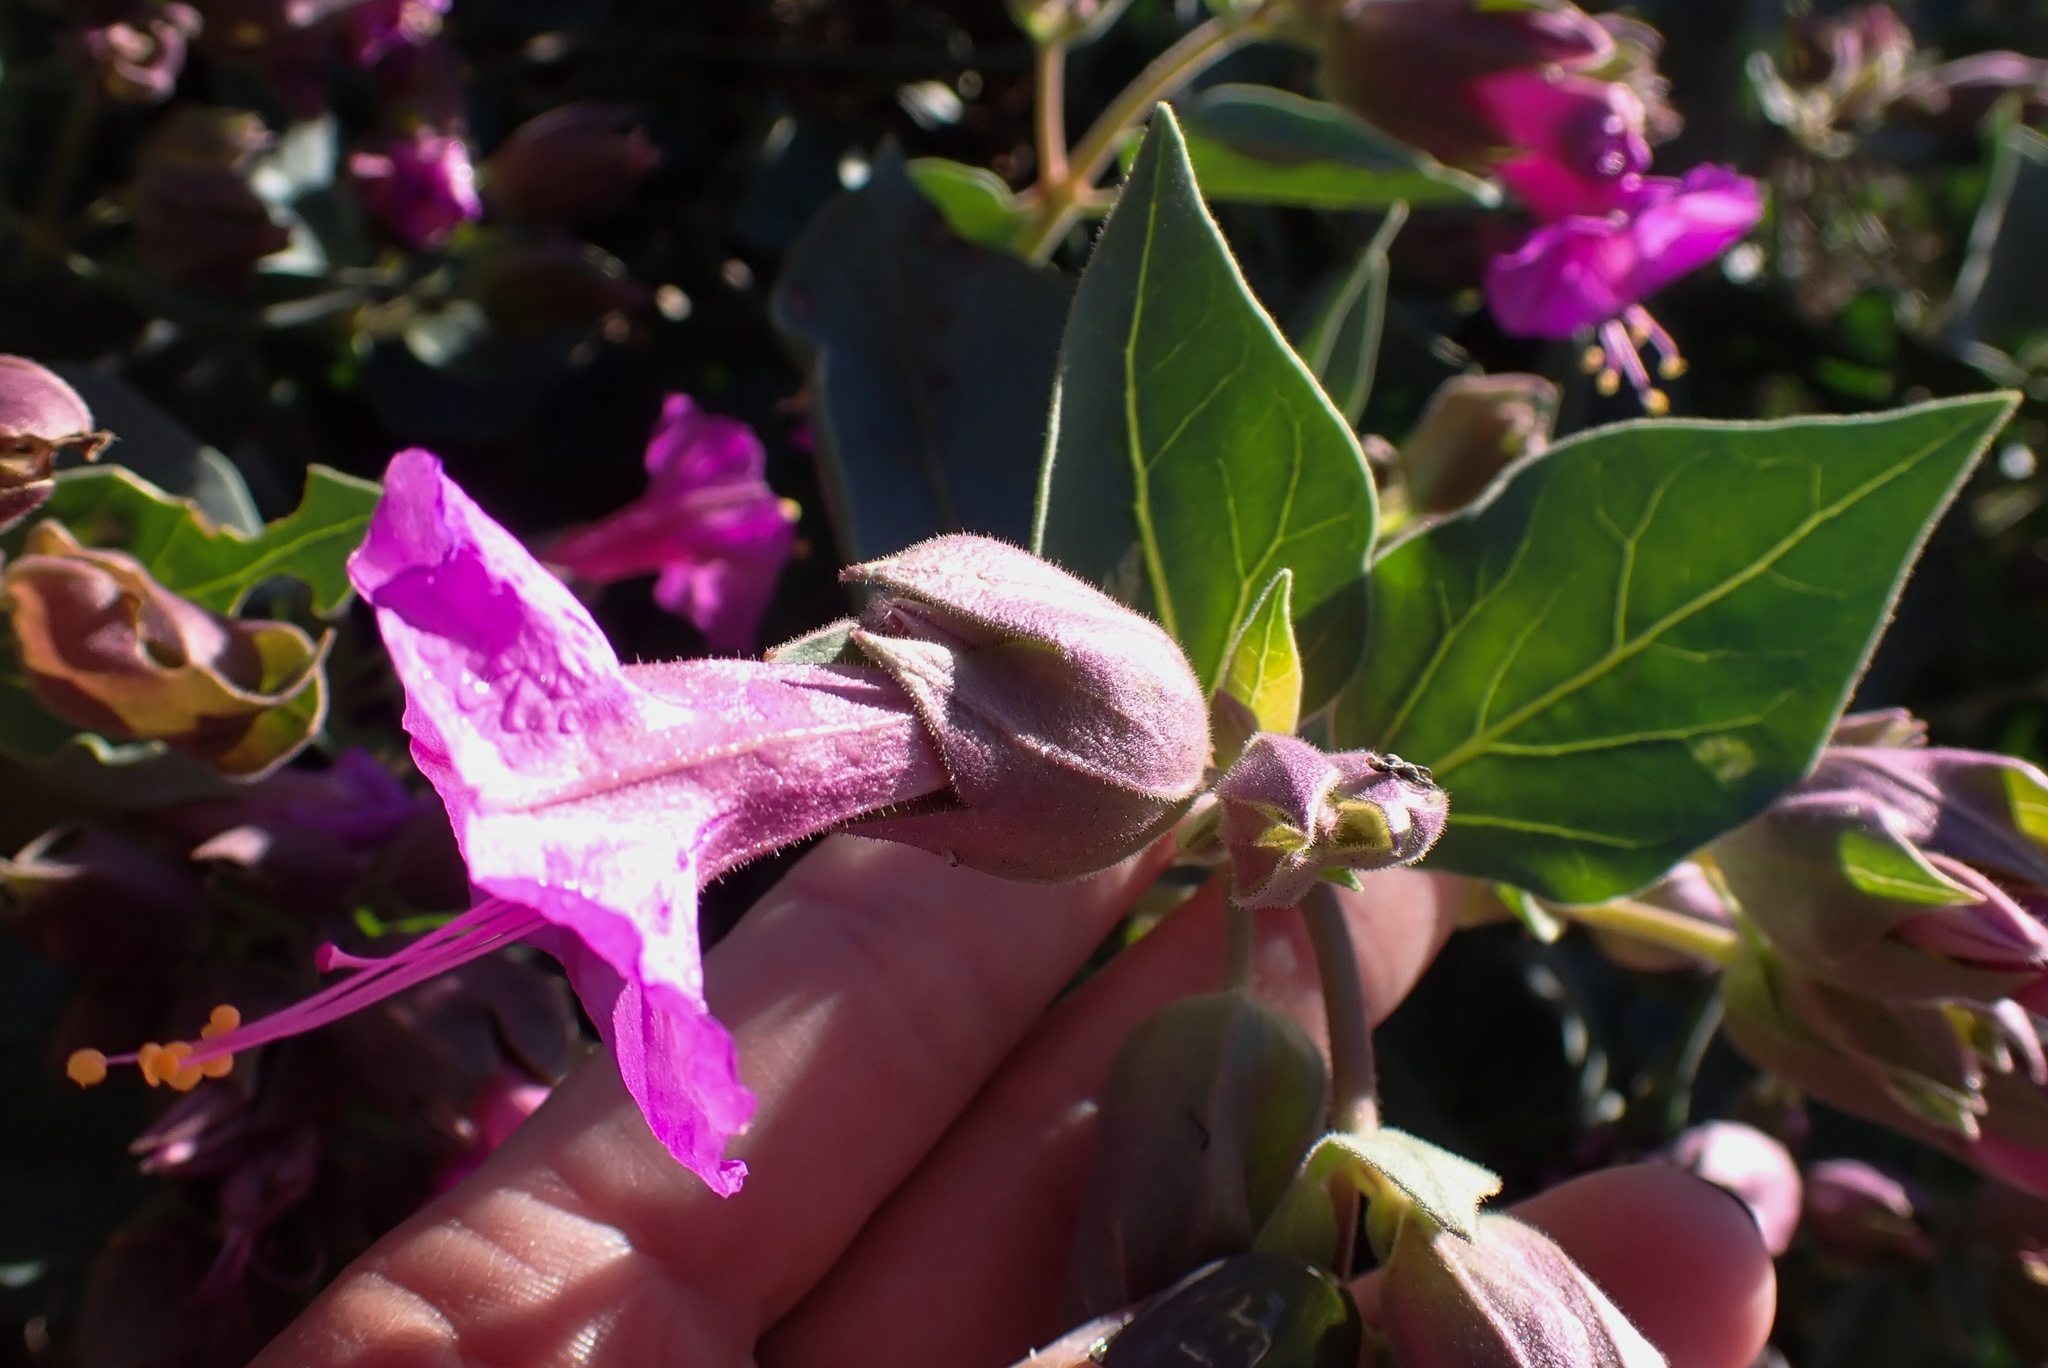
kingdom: Plantae
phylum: Tracheophyta
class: Magnoliopsida
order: Caryophyllales
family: Nyctaginaceae
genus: Mirabilis
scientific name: Mirabilis multiflora
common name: Froebel's four-o'clock
